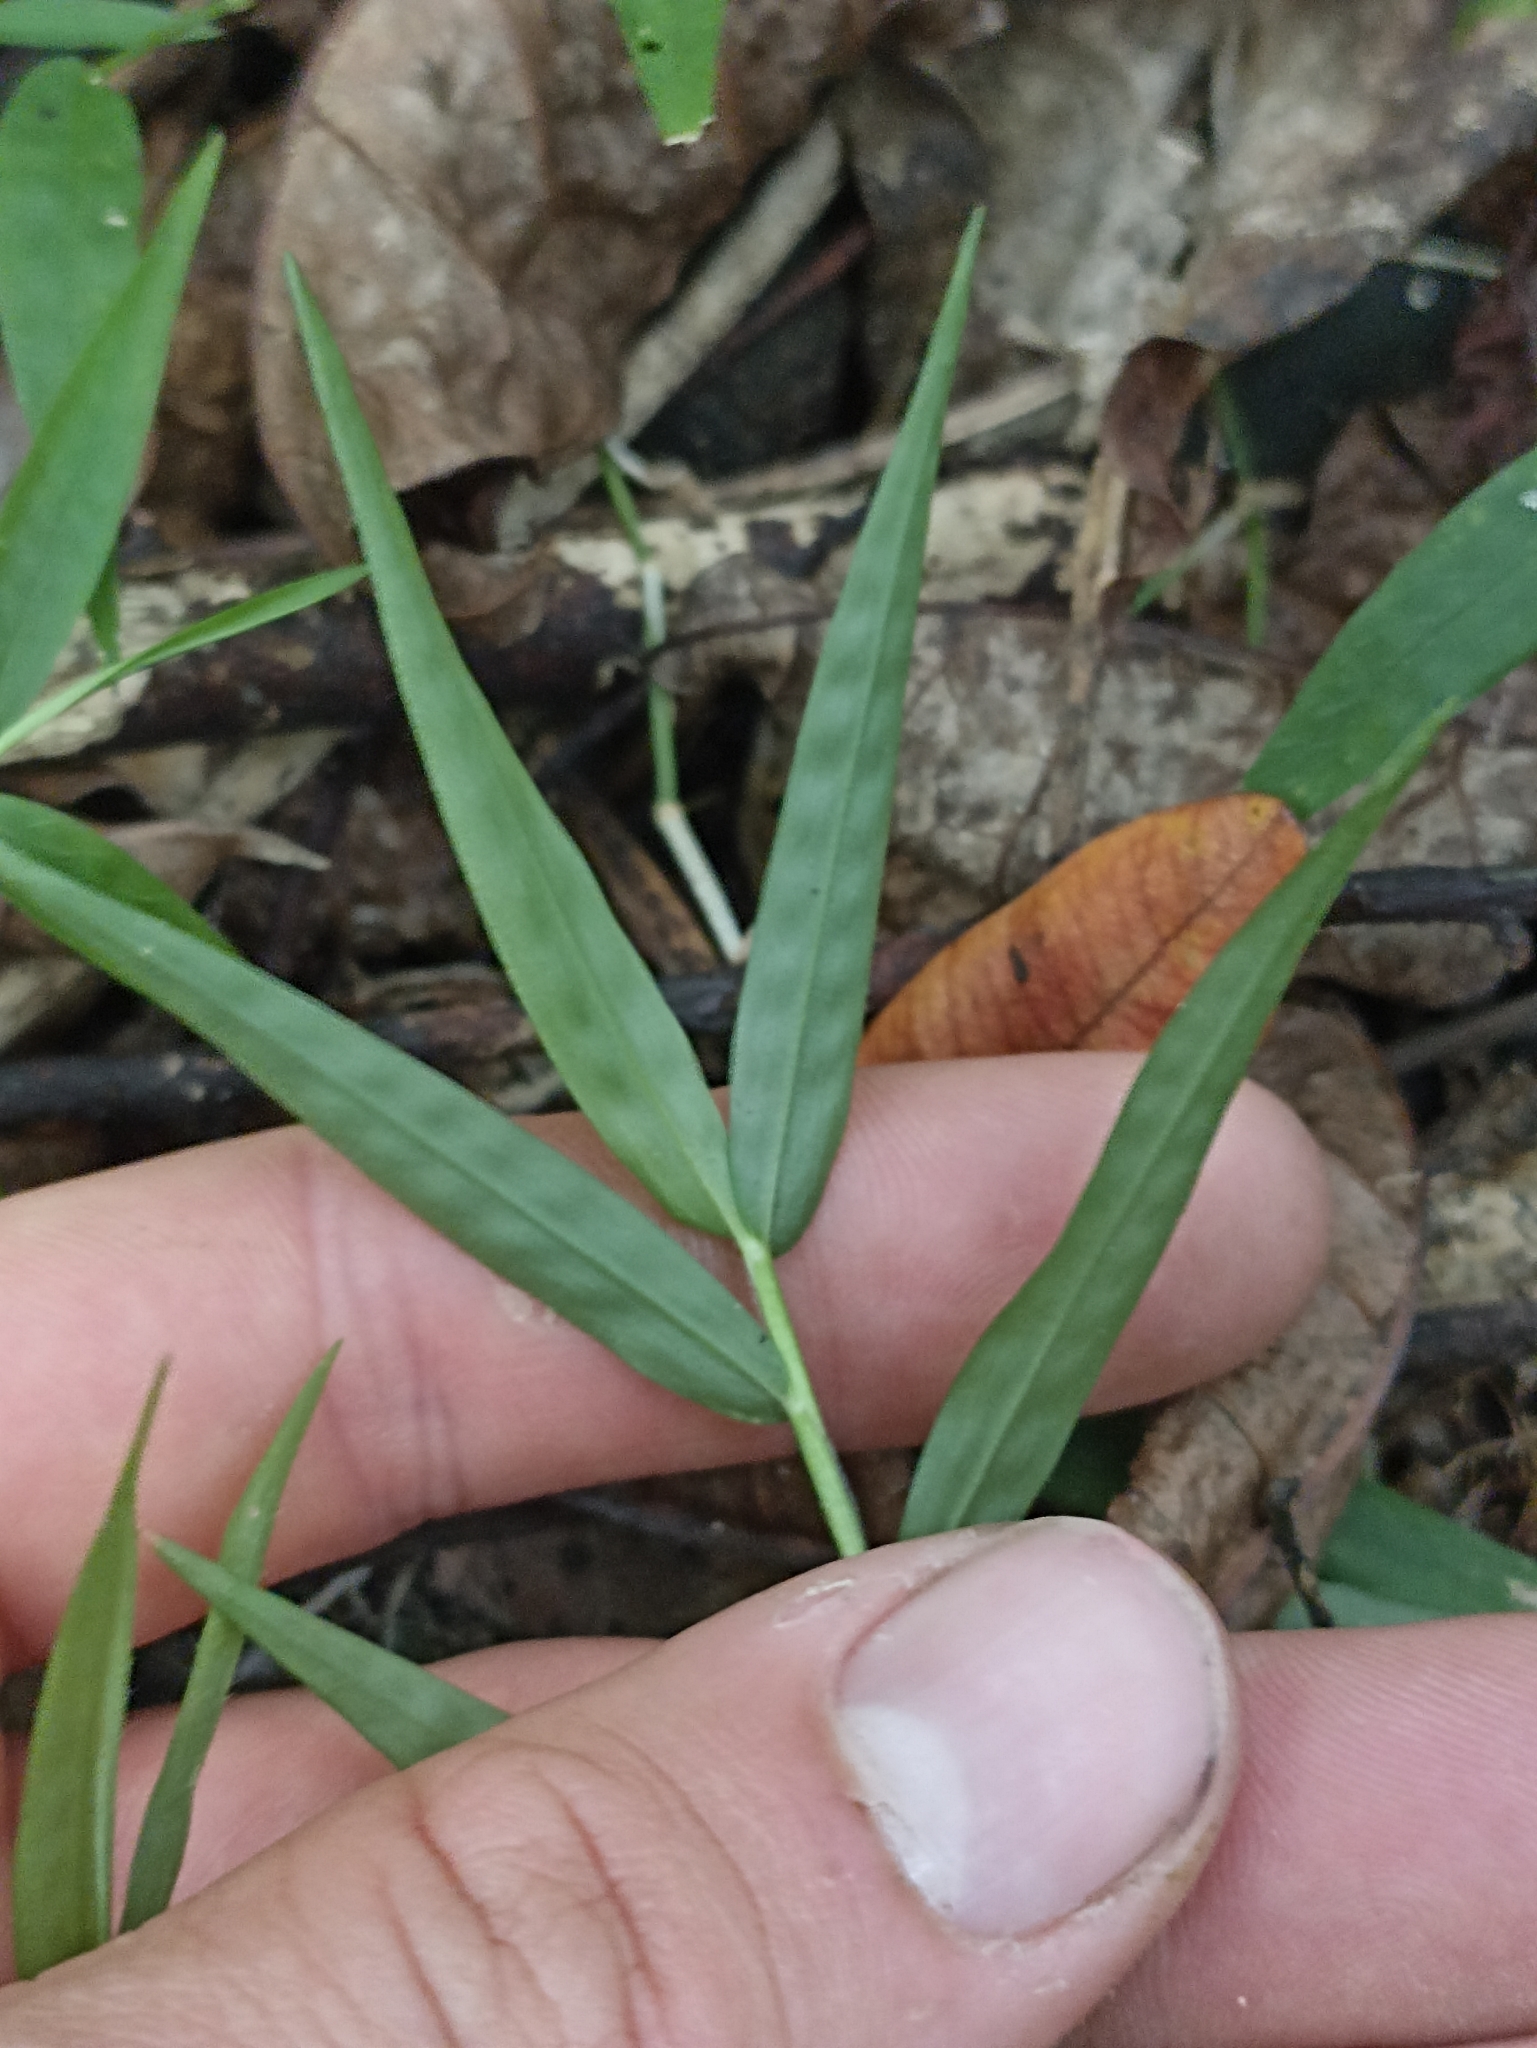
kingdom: Plantae
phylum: Tracheophyta
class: Liliopsida
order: Poales
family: Poaceae
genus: Oplismenus
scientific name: Oplismenus hirtellus
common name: Basketgrass
